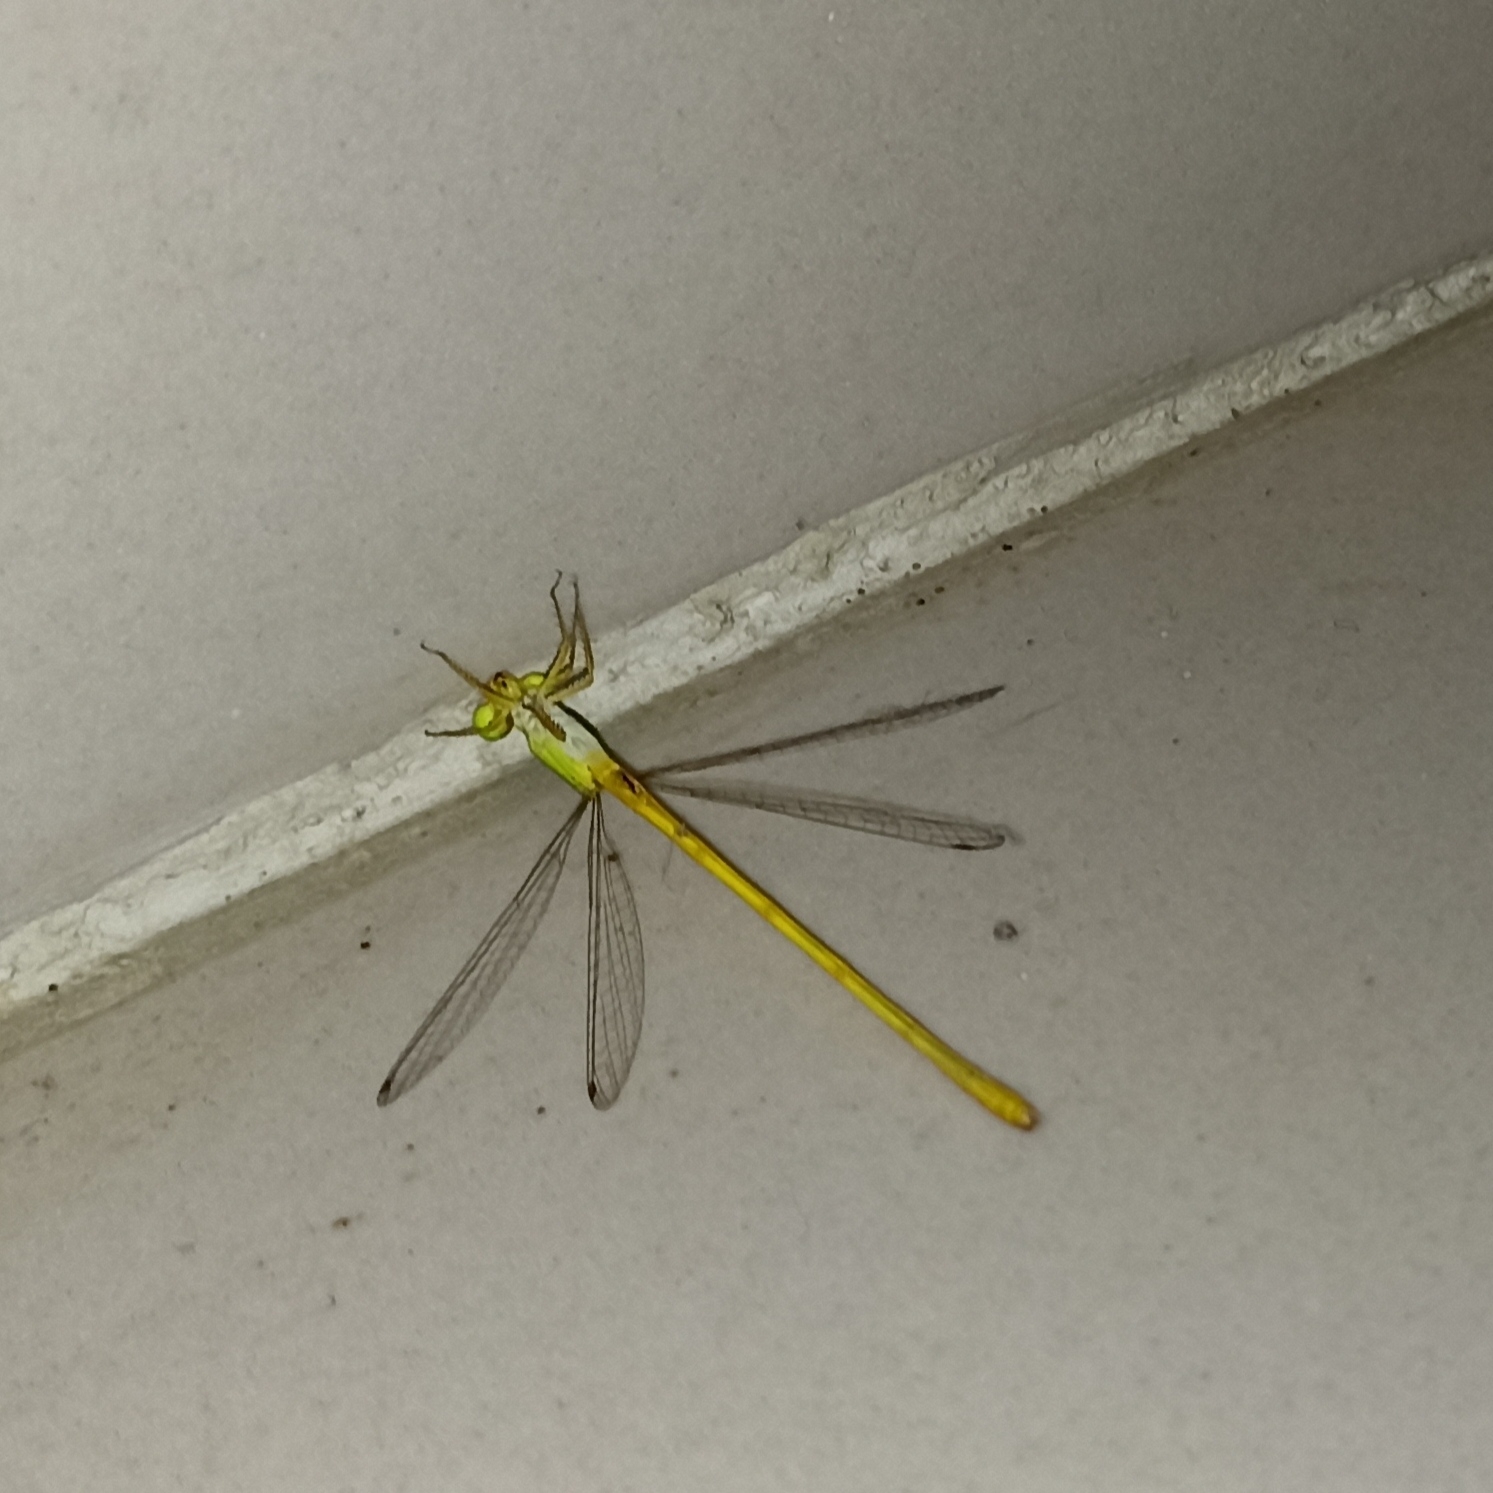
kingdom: Animalia
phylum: Arthropoda
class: Insecta
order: Odonata
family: Coenagrionidae
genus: Ceriagrion
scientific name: Ceriagrion coromandelianum
